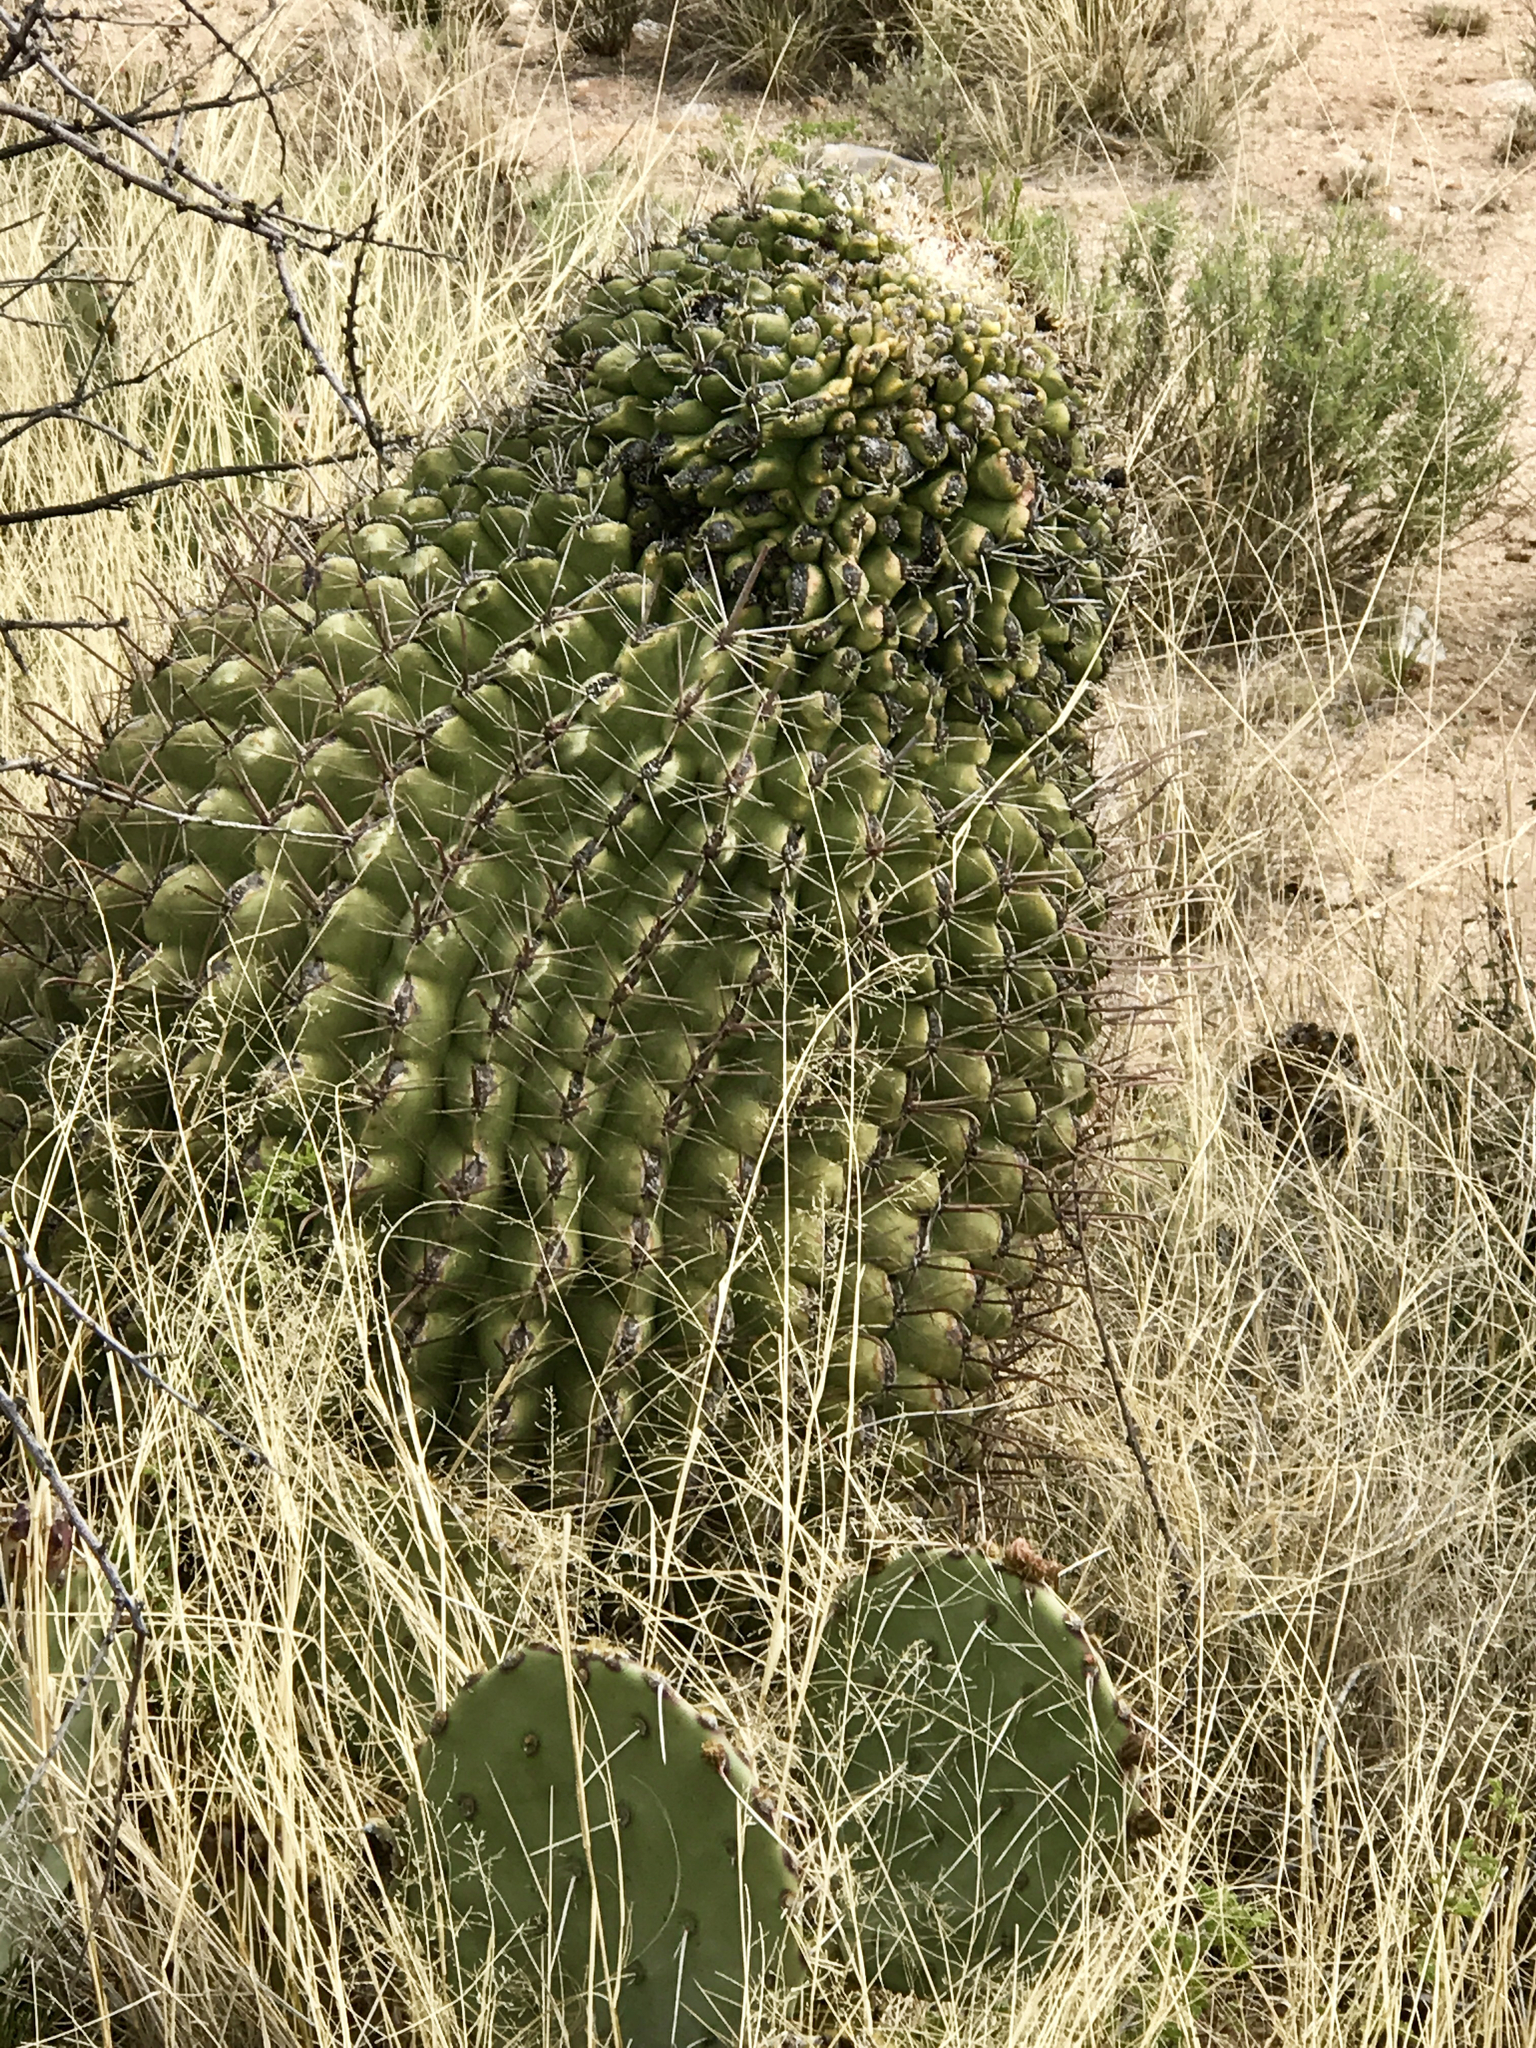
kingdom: Plantae
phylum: Tracheophyta
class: Magnoliopsida
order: Caryophyllales
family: Cactaceae
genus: Ferocactus
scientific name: Ferocactus wislizeni
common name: Candy barrel cactus
